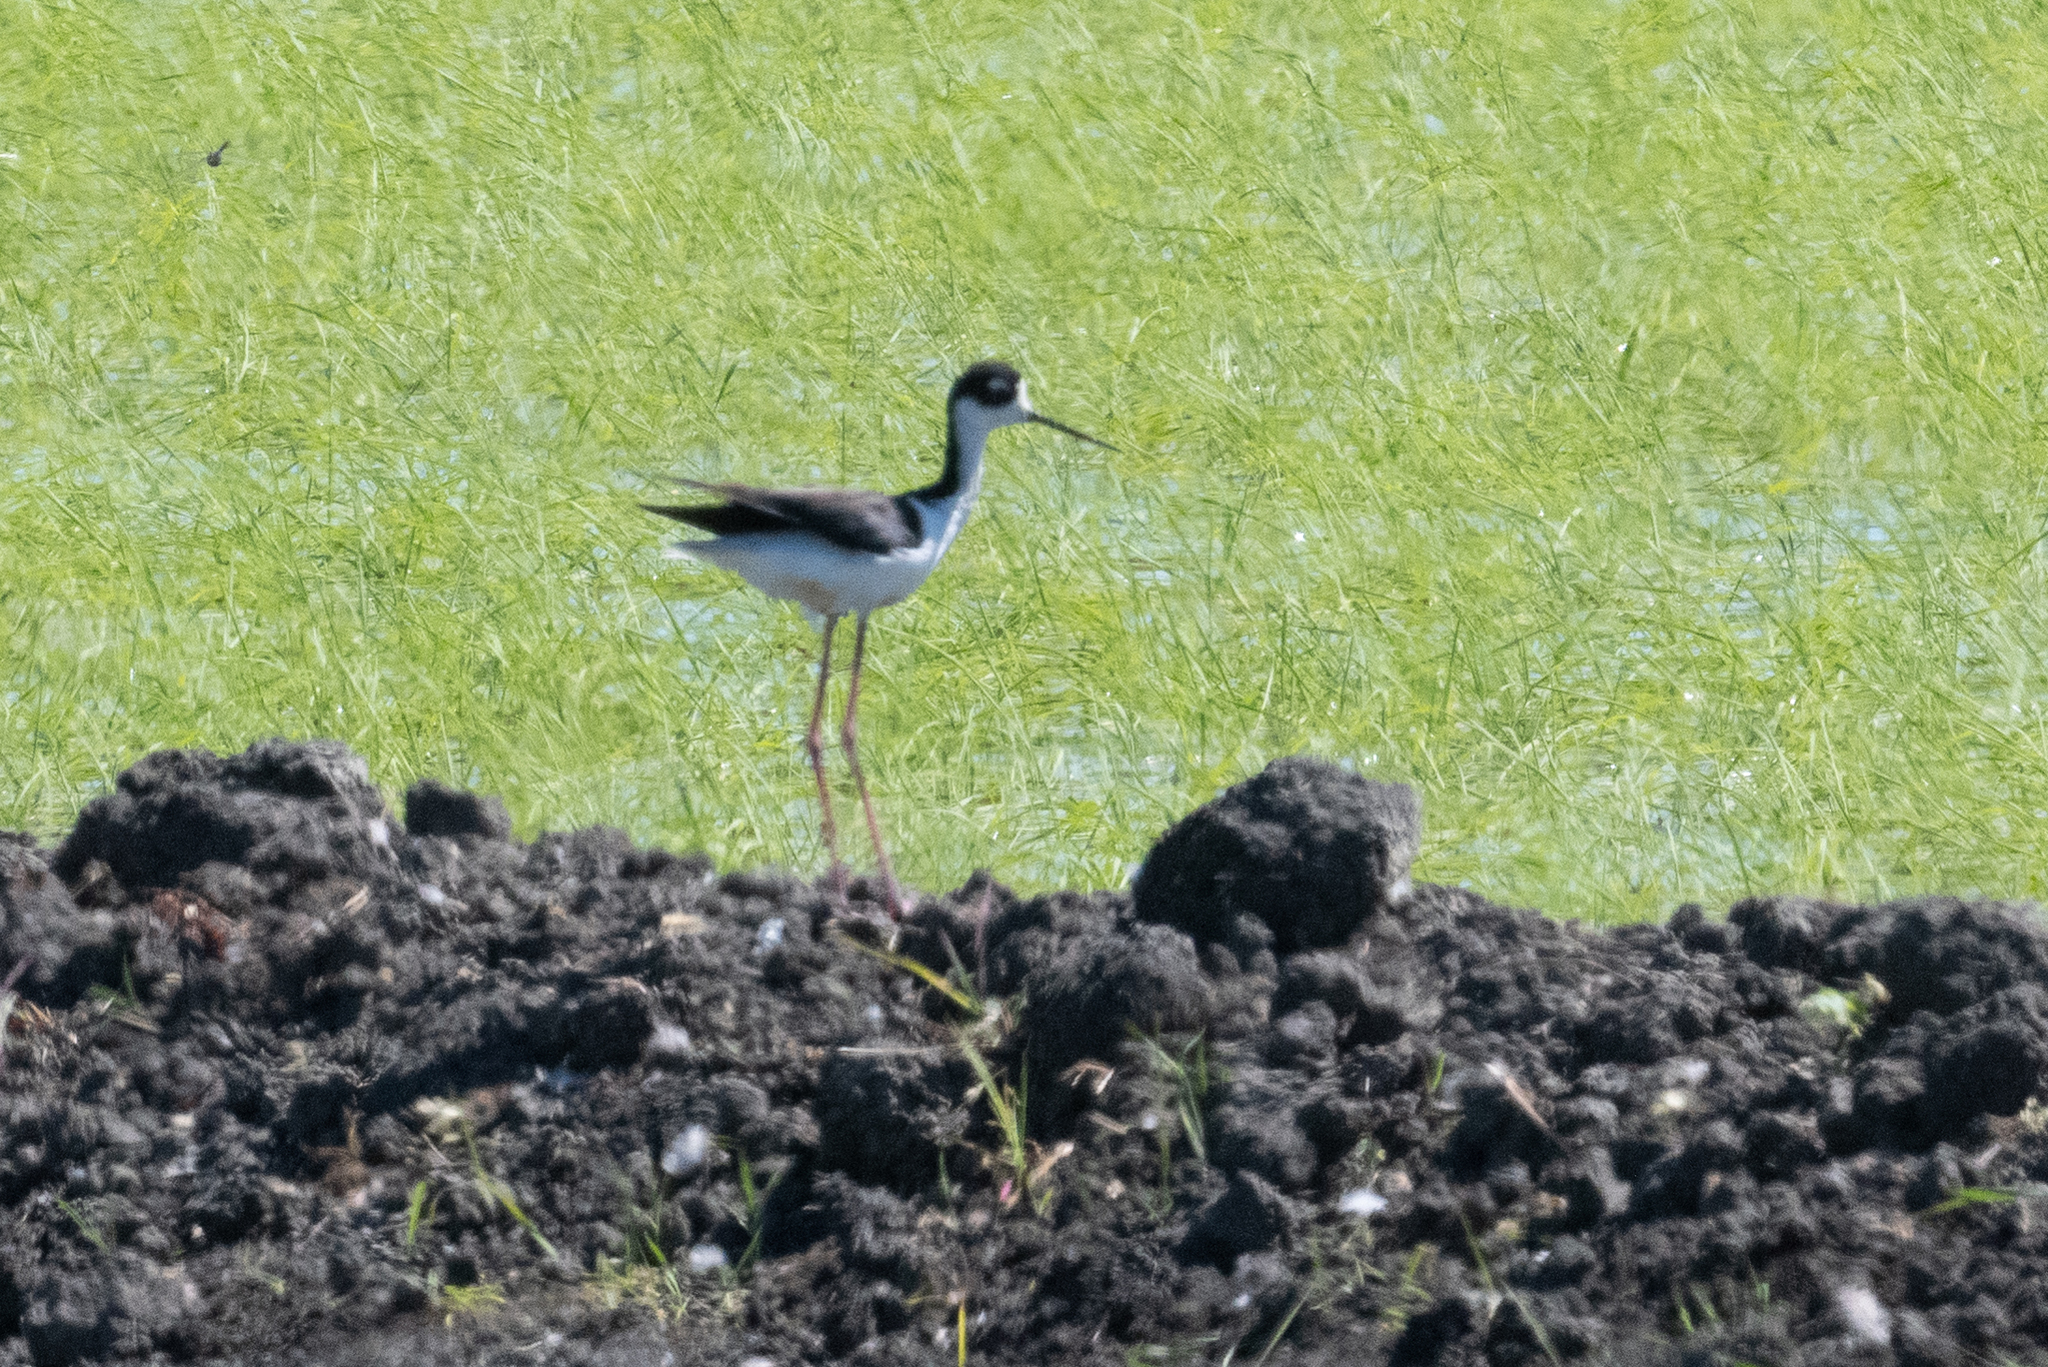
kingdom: Animalia
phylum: Chordata
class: Aves
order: Charadriiformes
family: Recurvirostridae
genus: Himantopus
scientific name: Himantopus mexicanus
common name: Black-necked stilt
